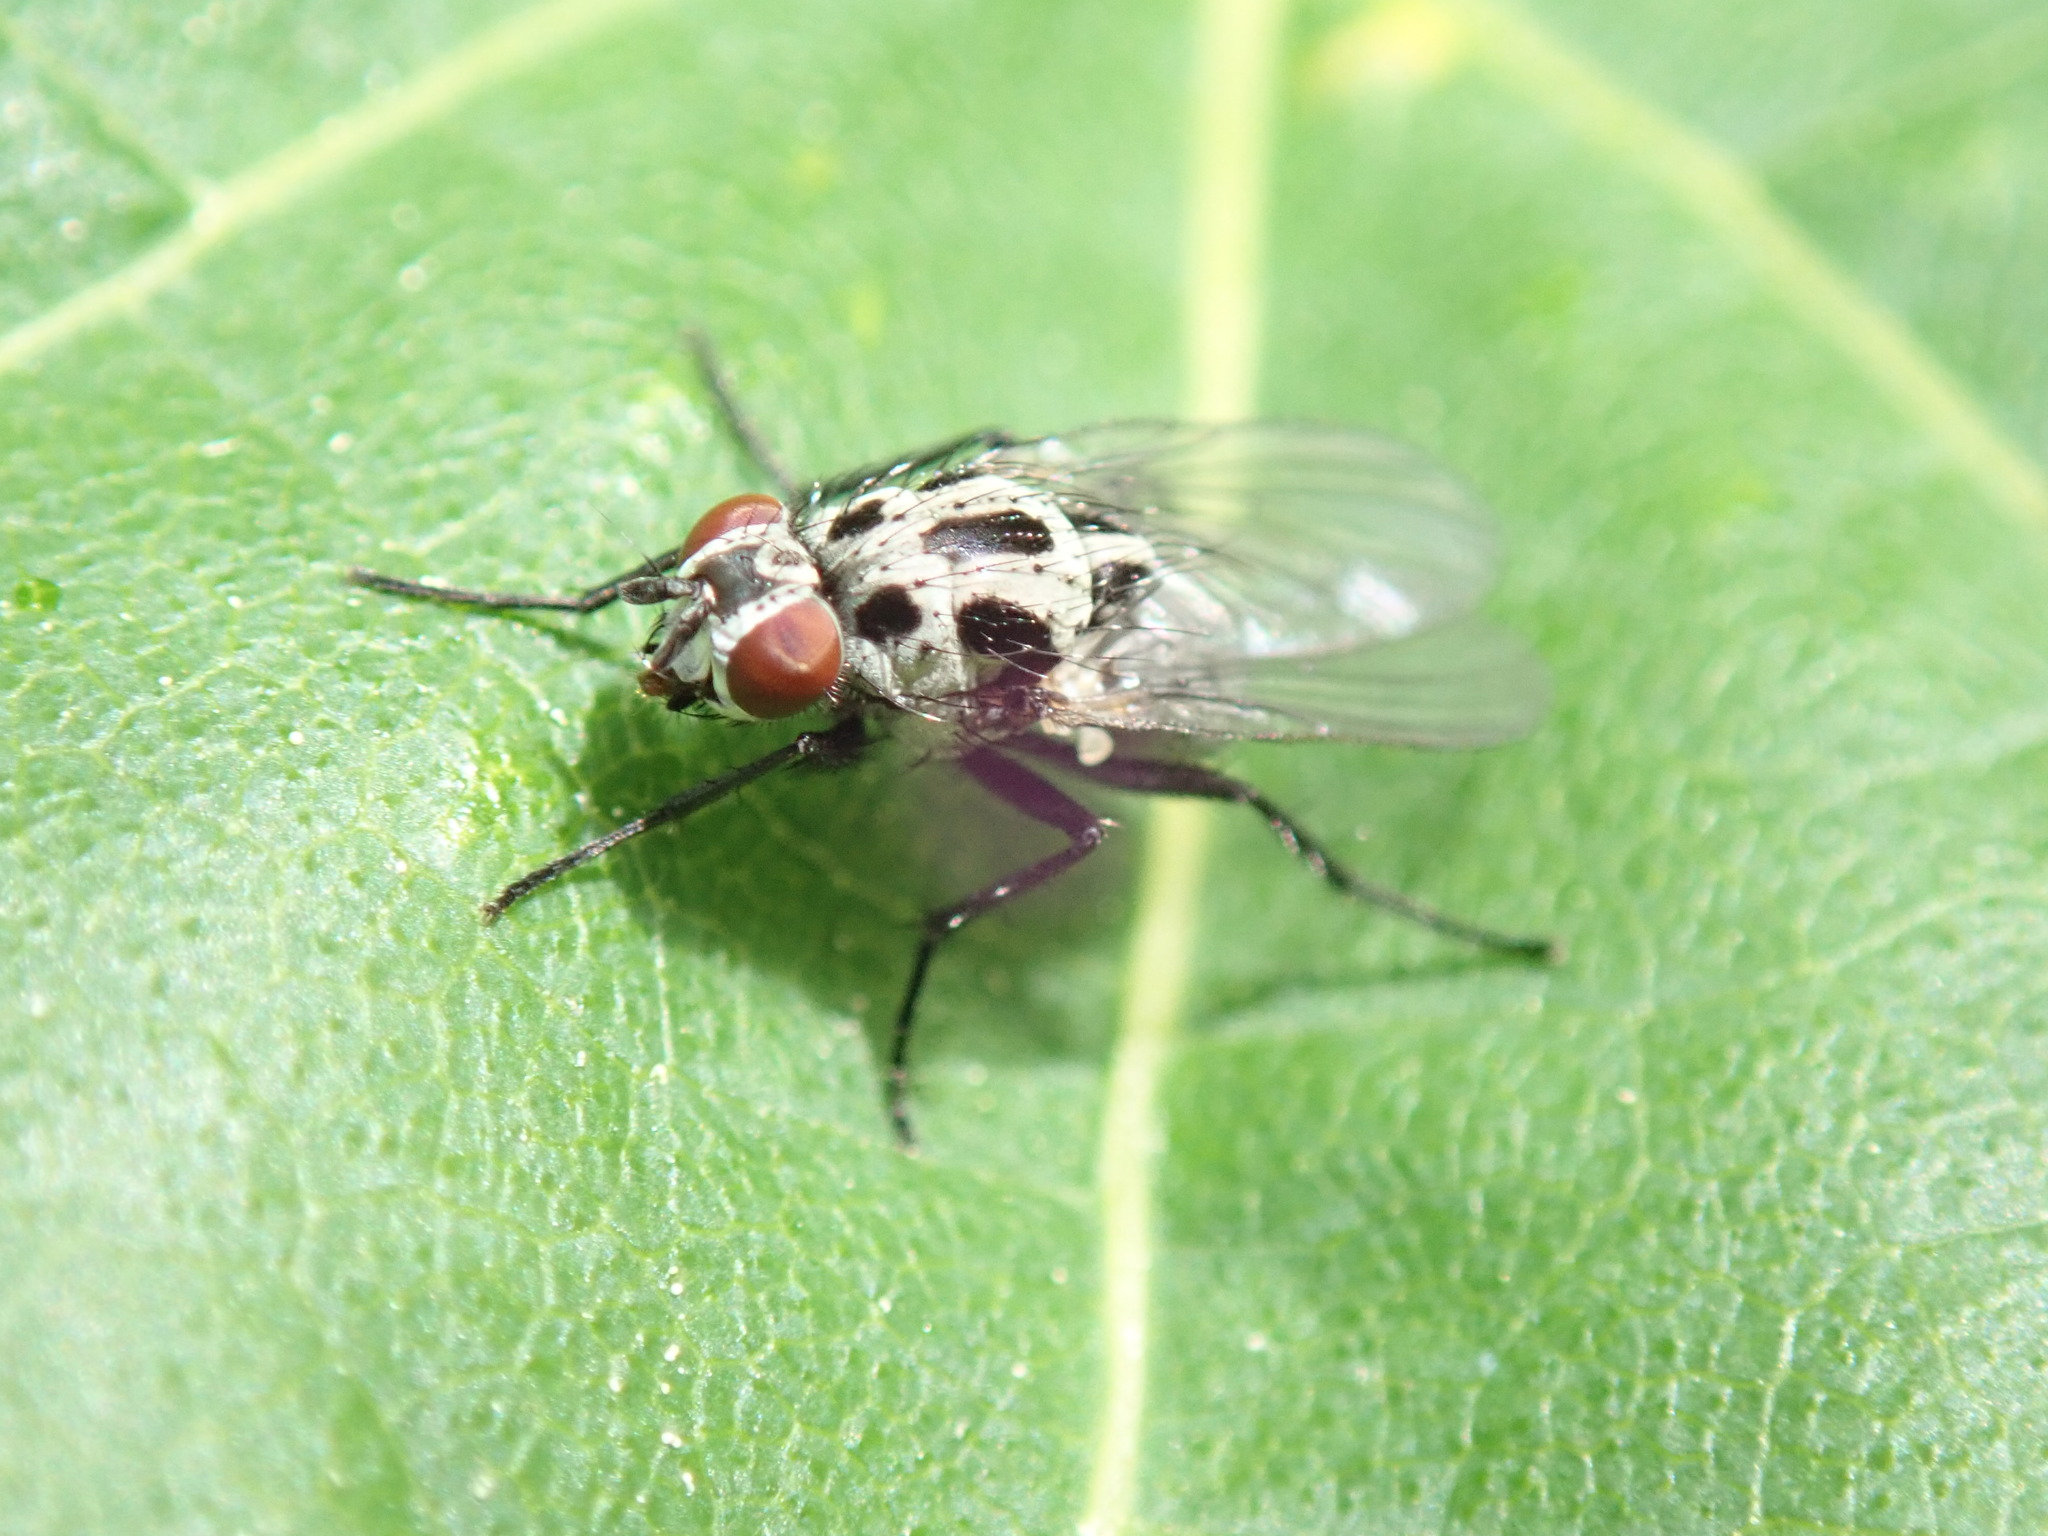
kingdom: Animalia
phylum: Arthropoda
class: Insecta
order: Diptera
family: Anthomyiidae
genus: Anthomyia
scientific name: Anthomyia procellaris
